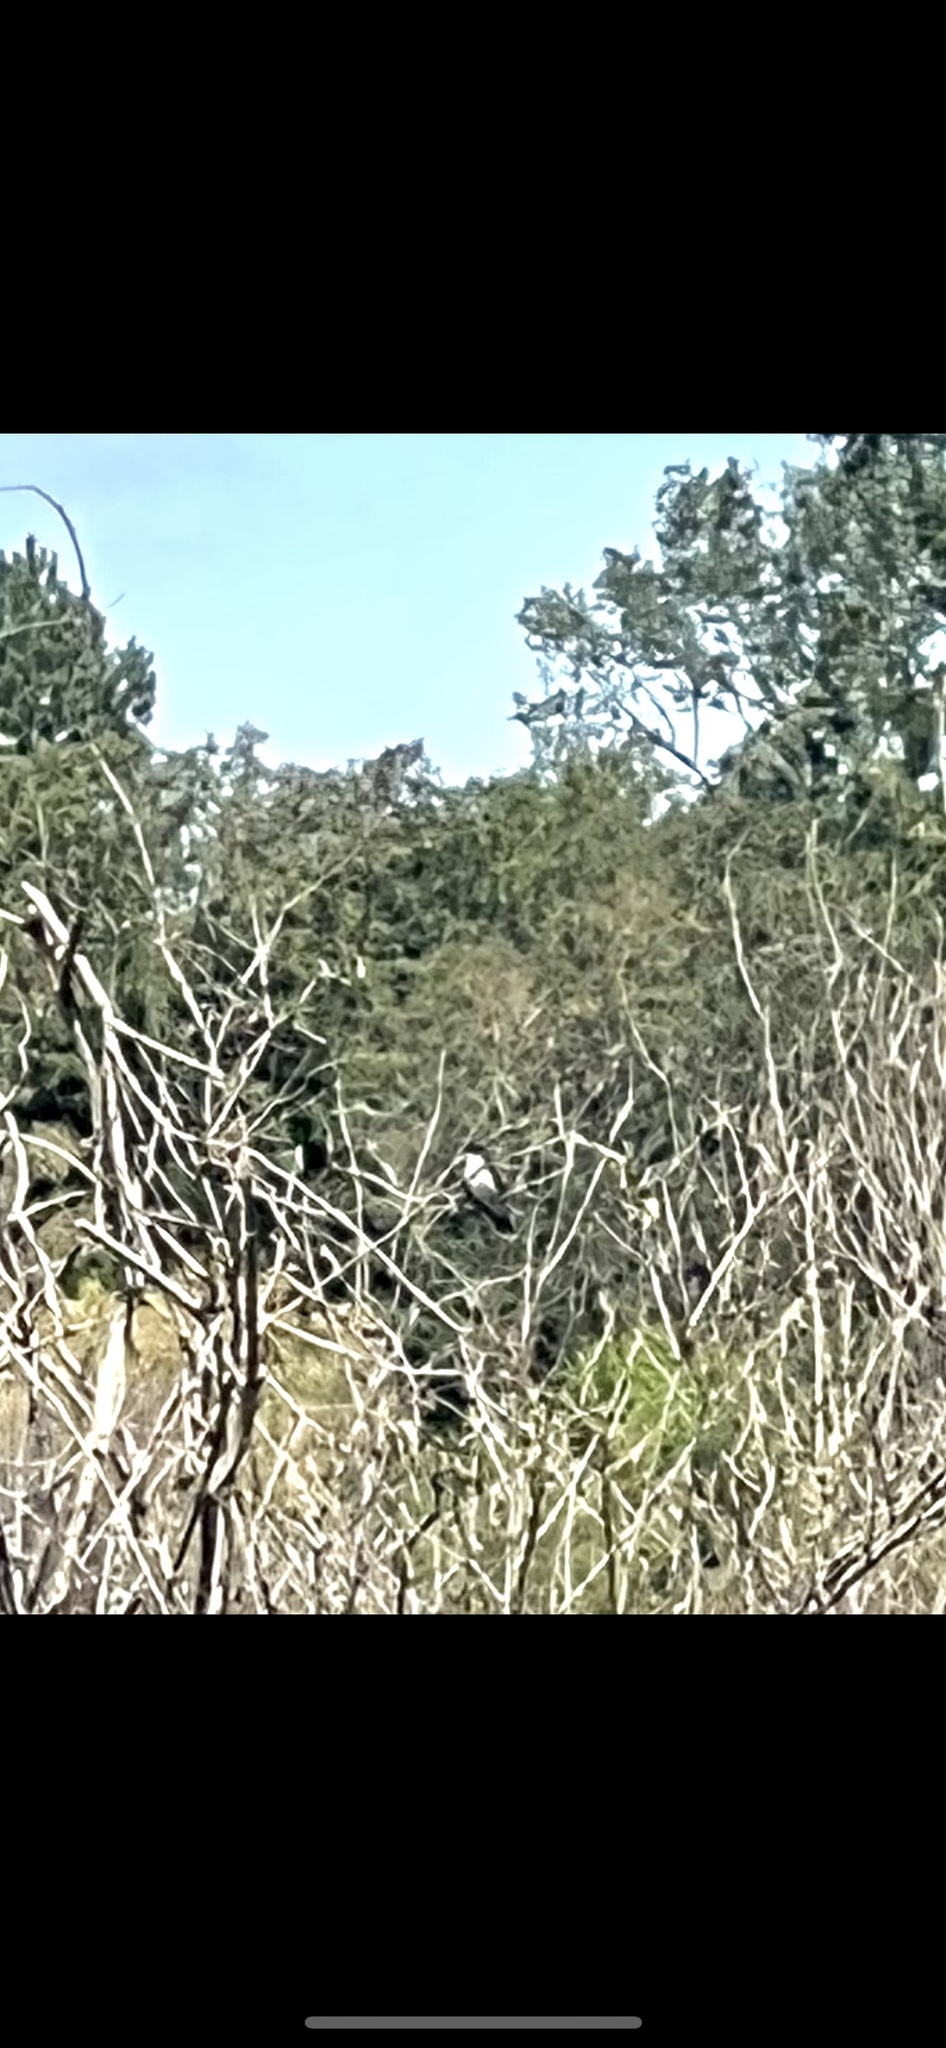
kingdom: Animalia
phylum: Chordata
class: Aves
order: Passeriformes
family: Tyrannidae
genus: Tyrannus
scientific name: Tyrannus tyrannus
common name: Eastern kingbird
